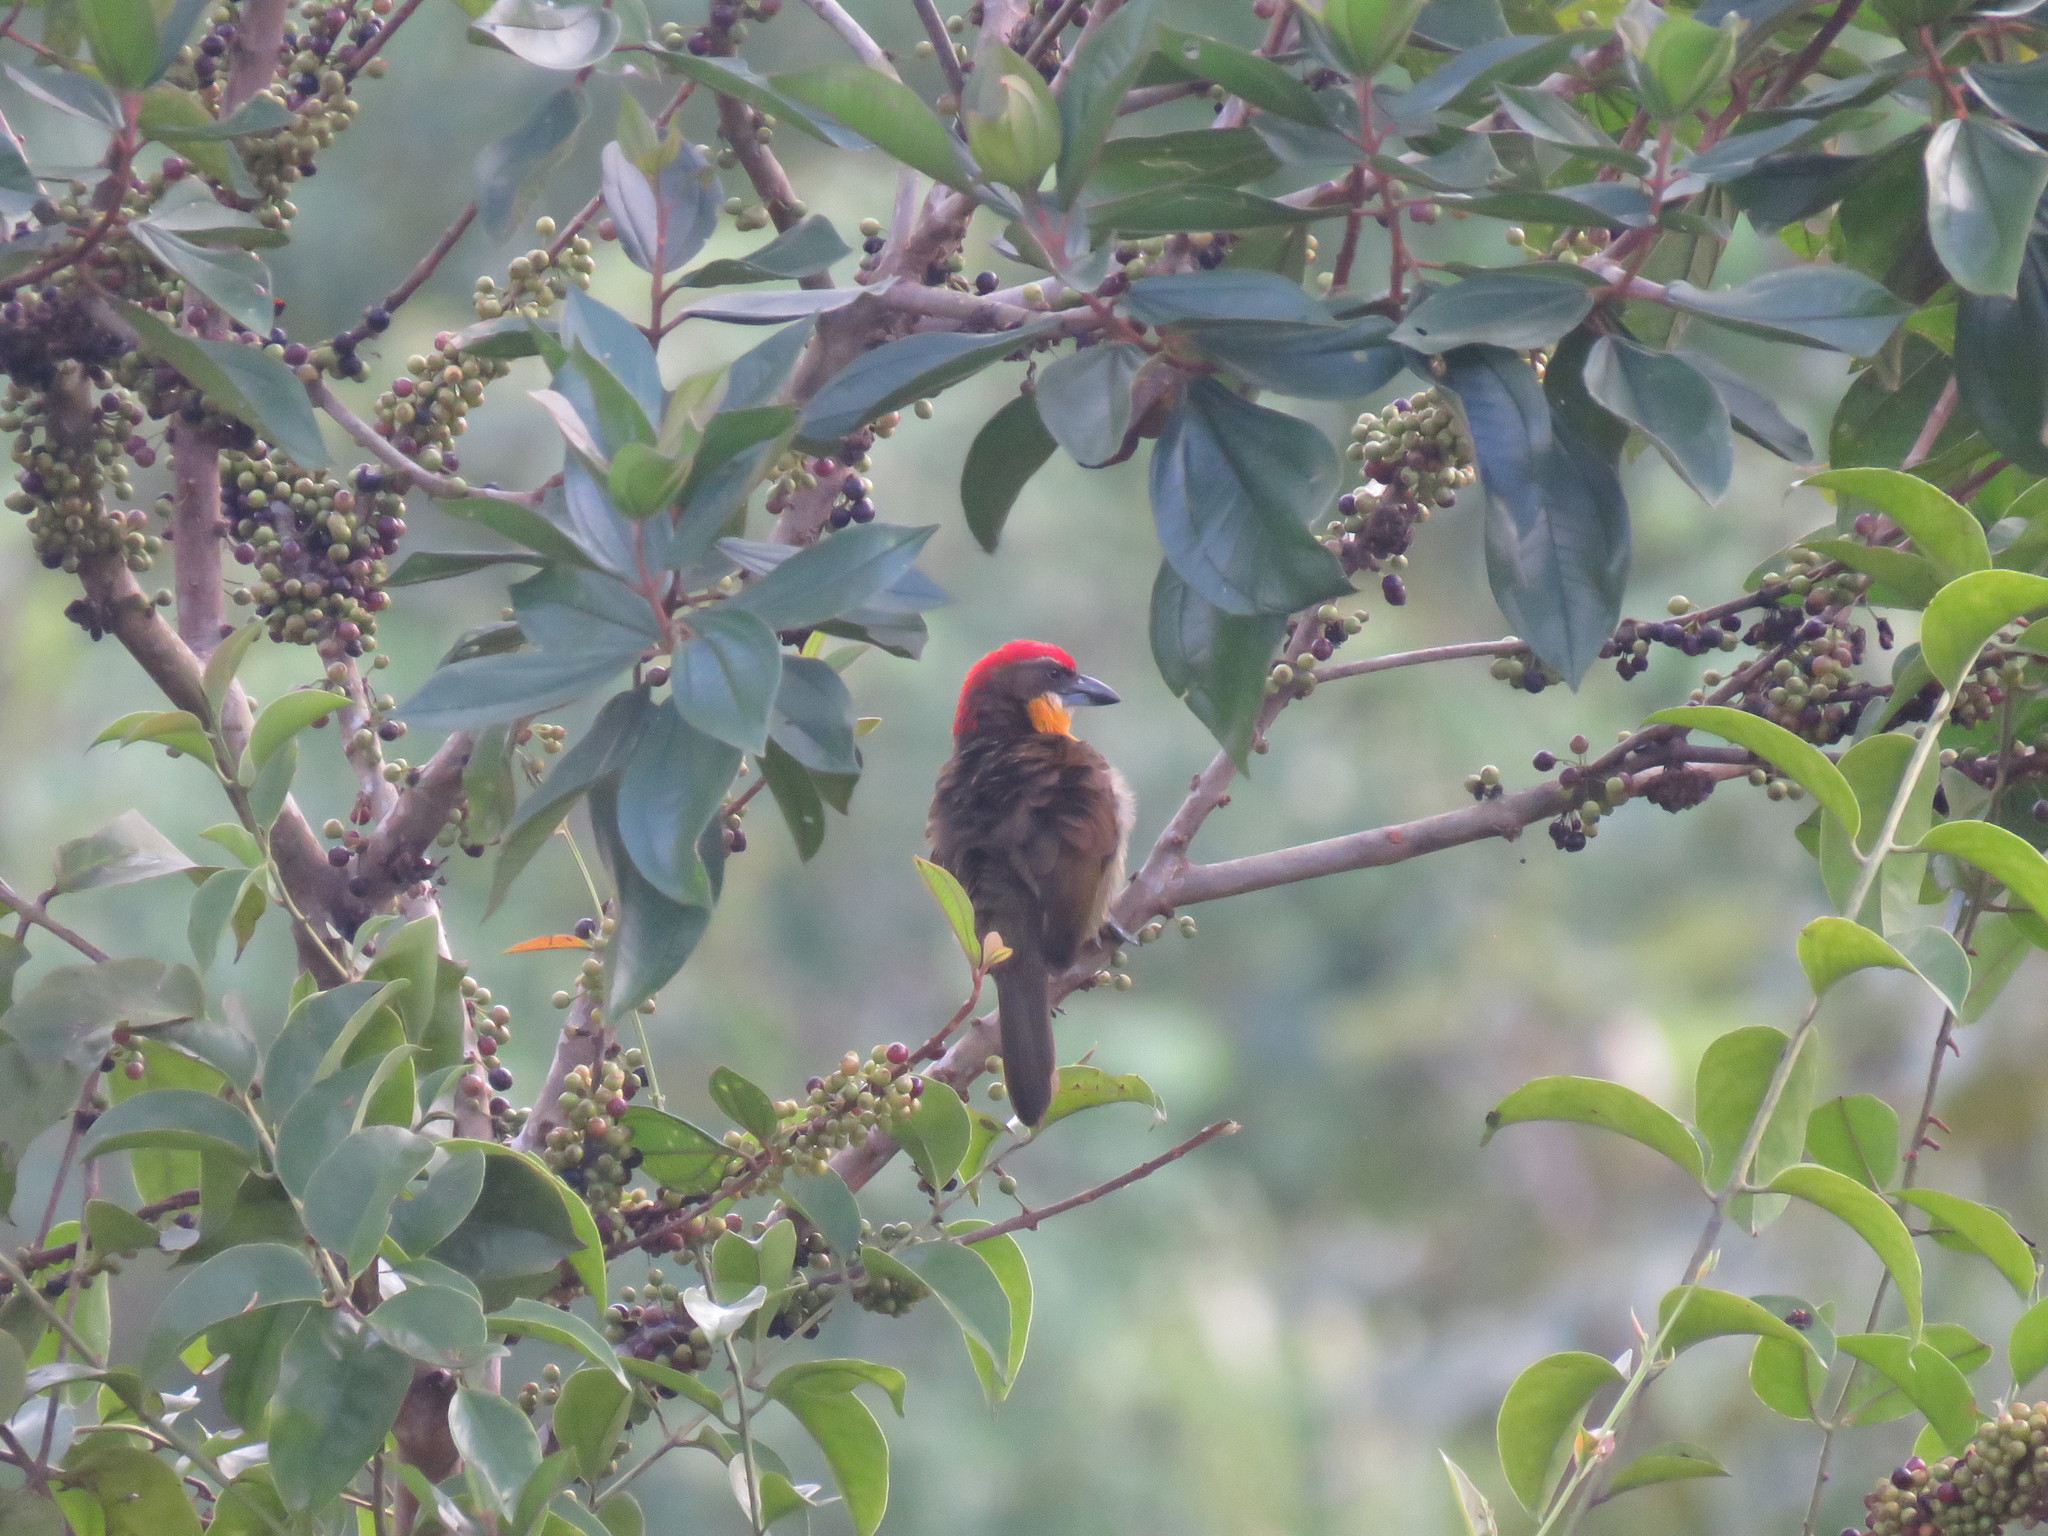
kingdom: Animalia
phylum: Chordata
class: Aves
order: Piciformes
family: Capitonidae
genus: Capito
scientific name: Capito aurovirens
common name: Scarlet-crowned barbet
